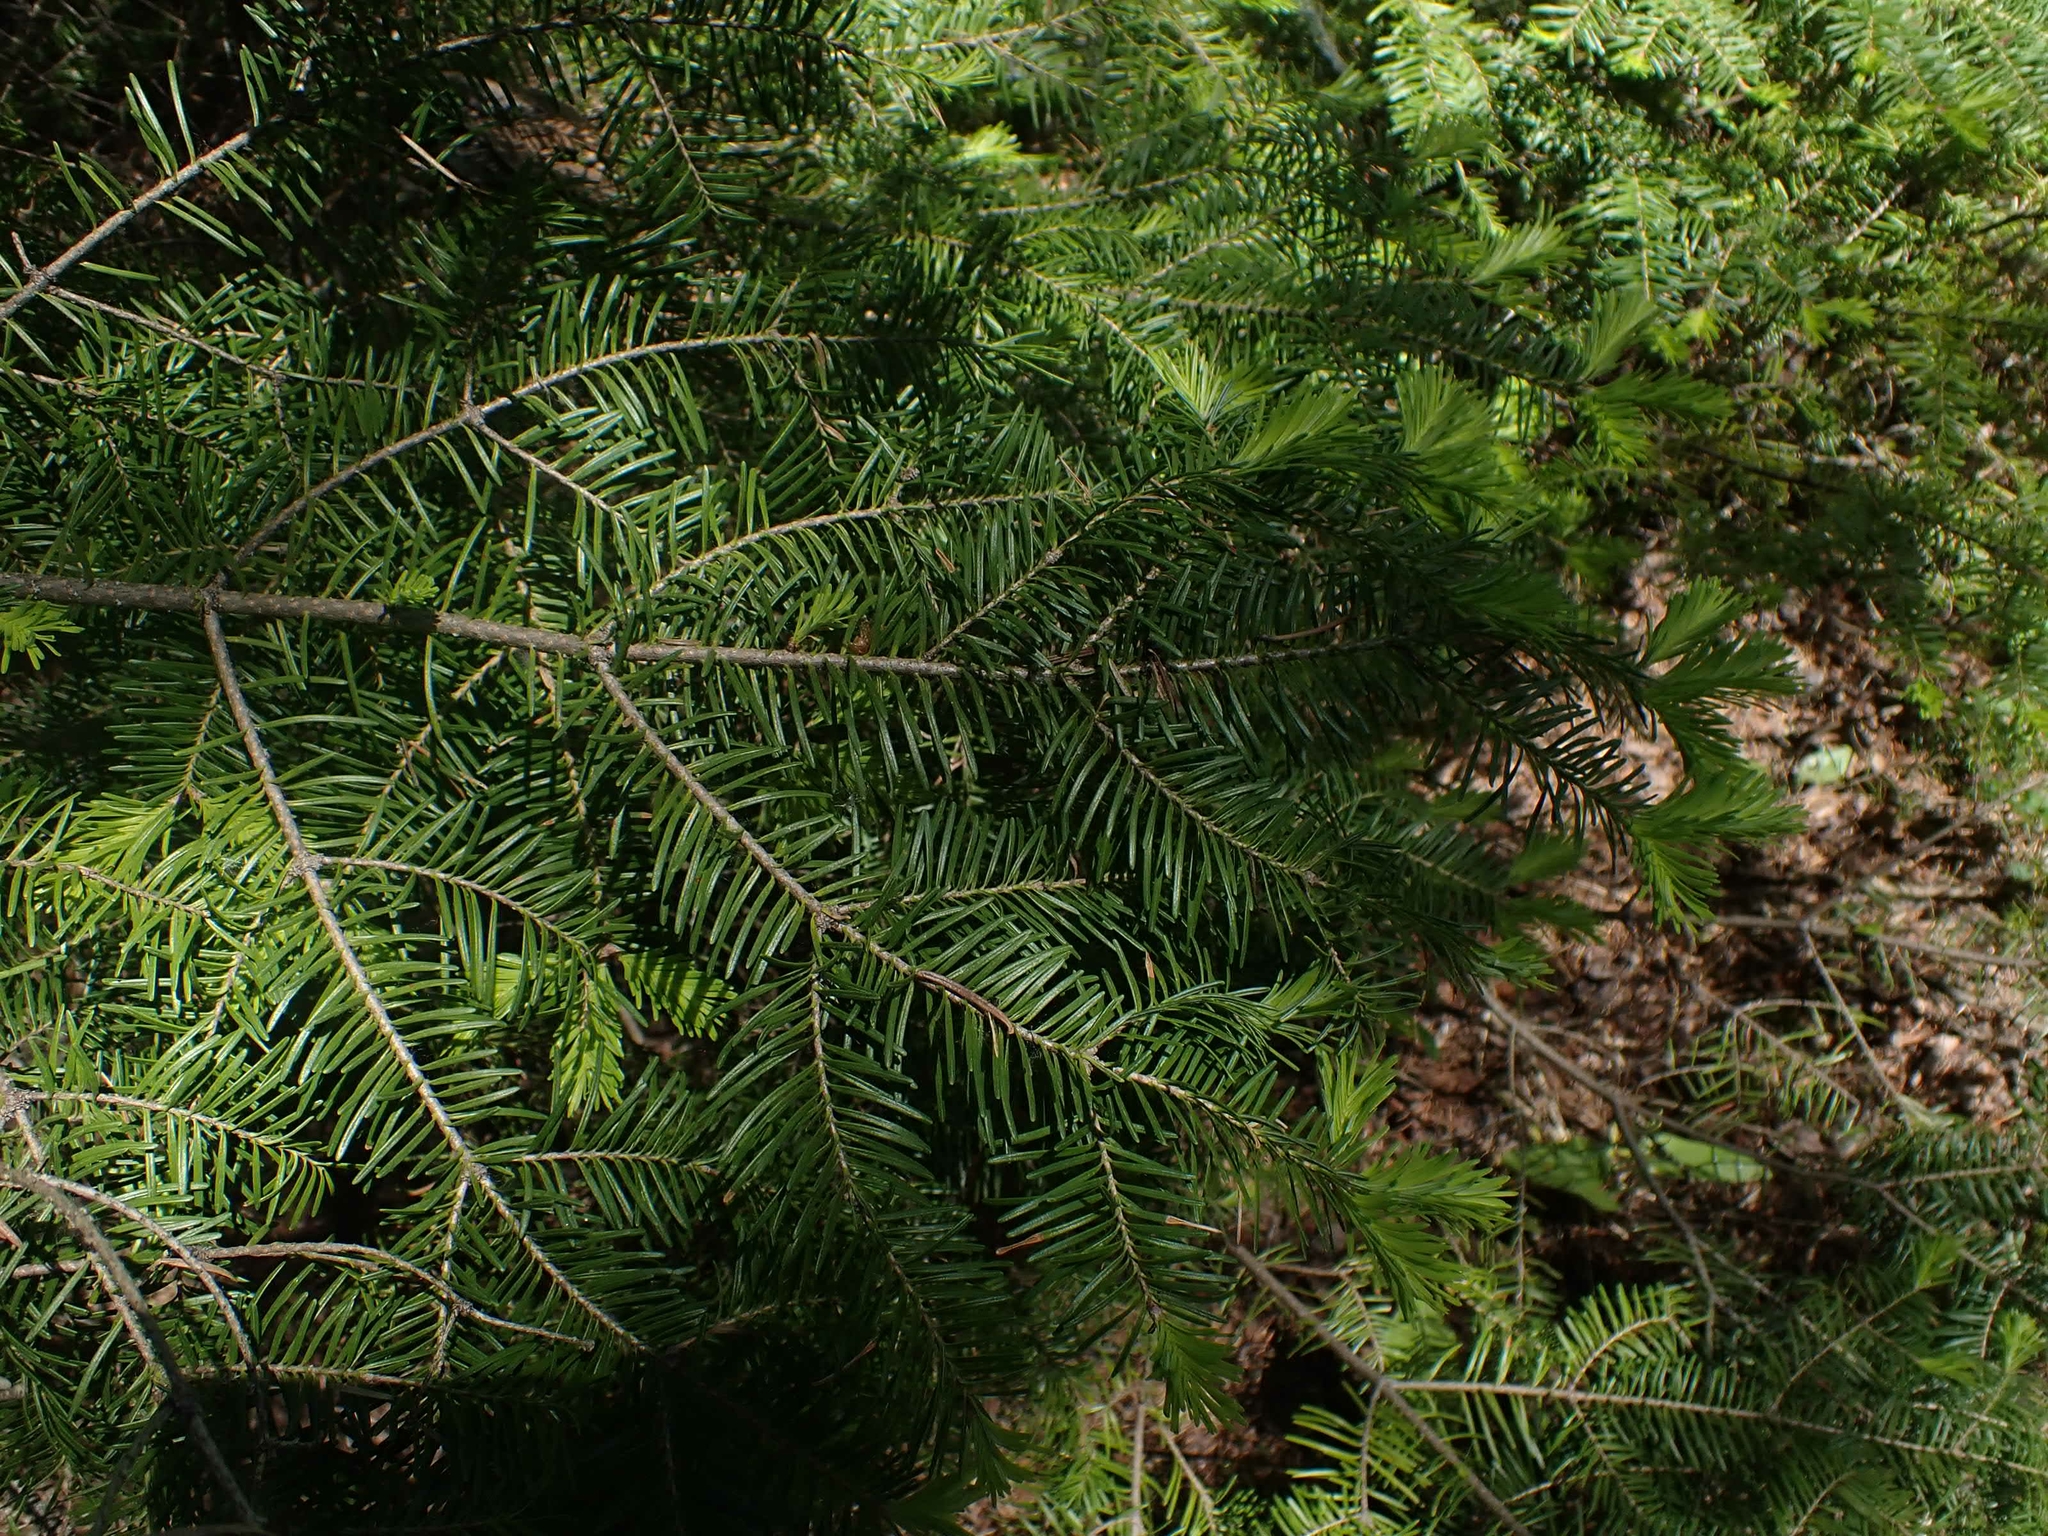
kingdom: Plantae
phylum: Tracheophyta
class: Pinopsida
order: Pinales
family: Pinaceae
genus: Abies
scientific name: Abies balsamea
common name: Balsam fir
